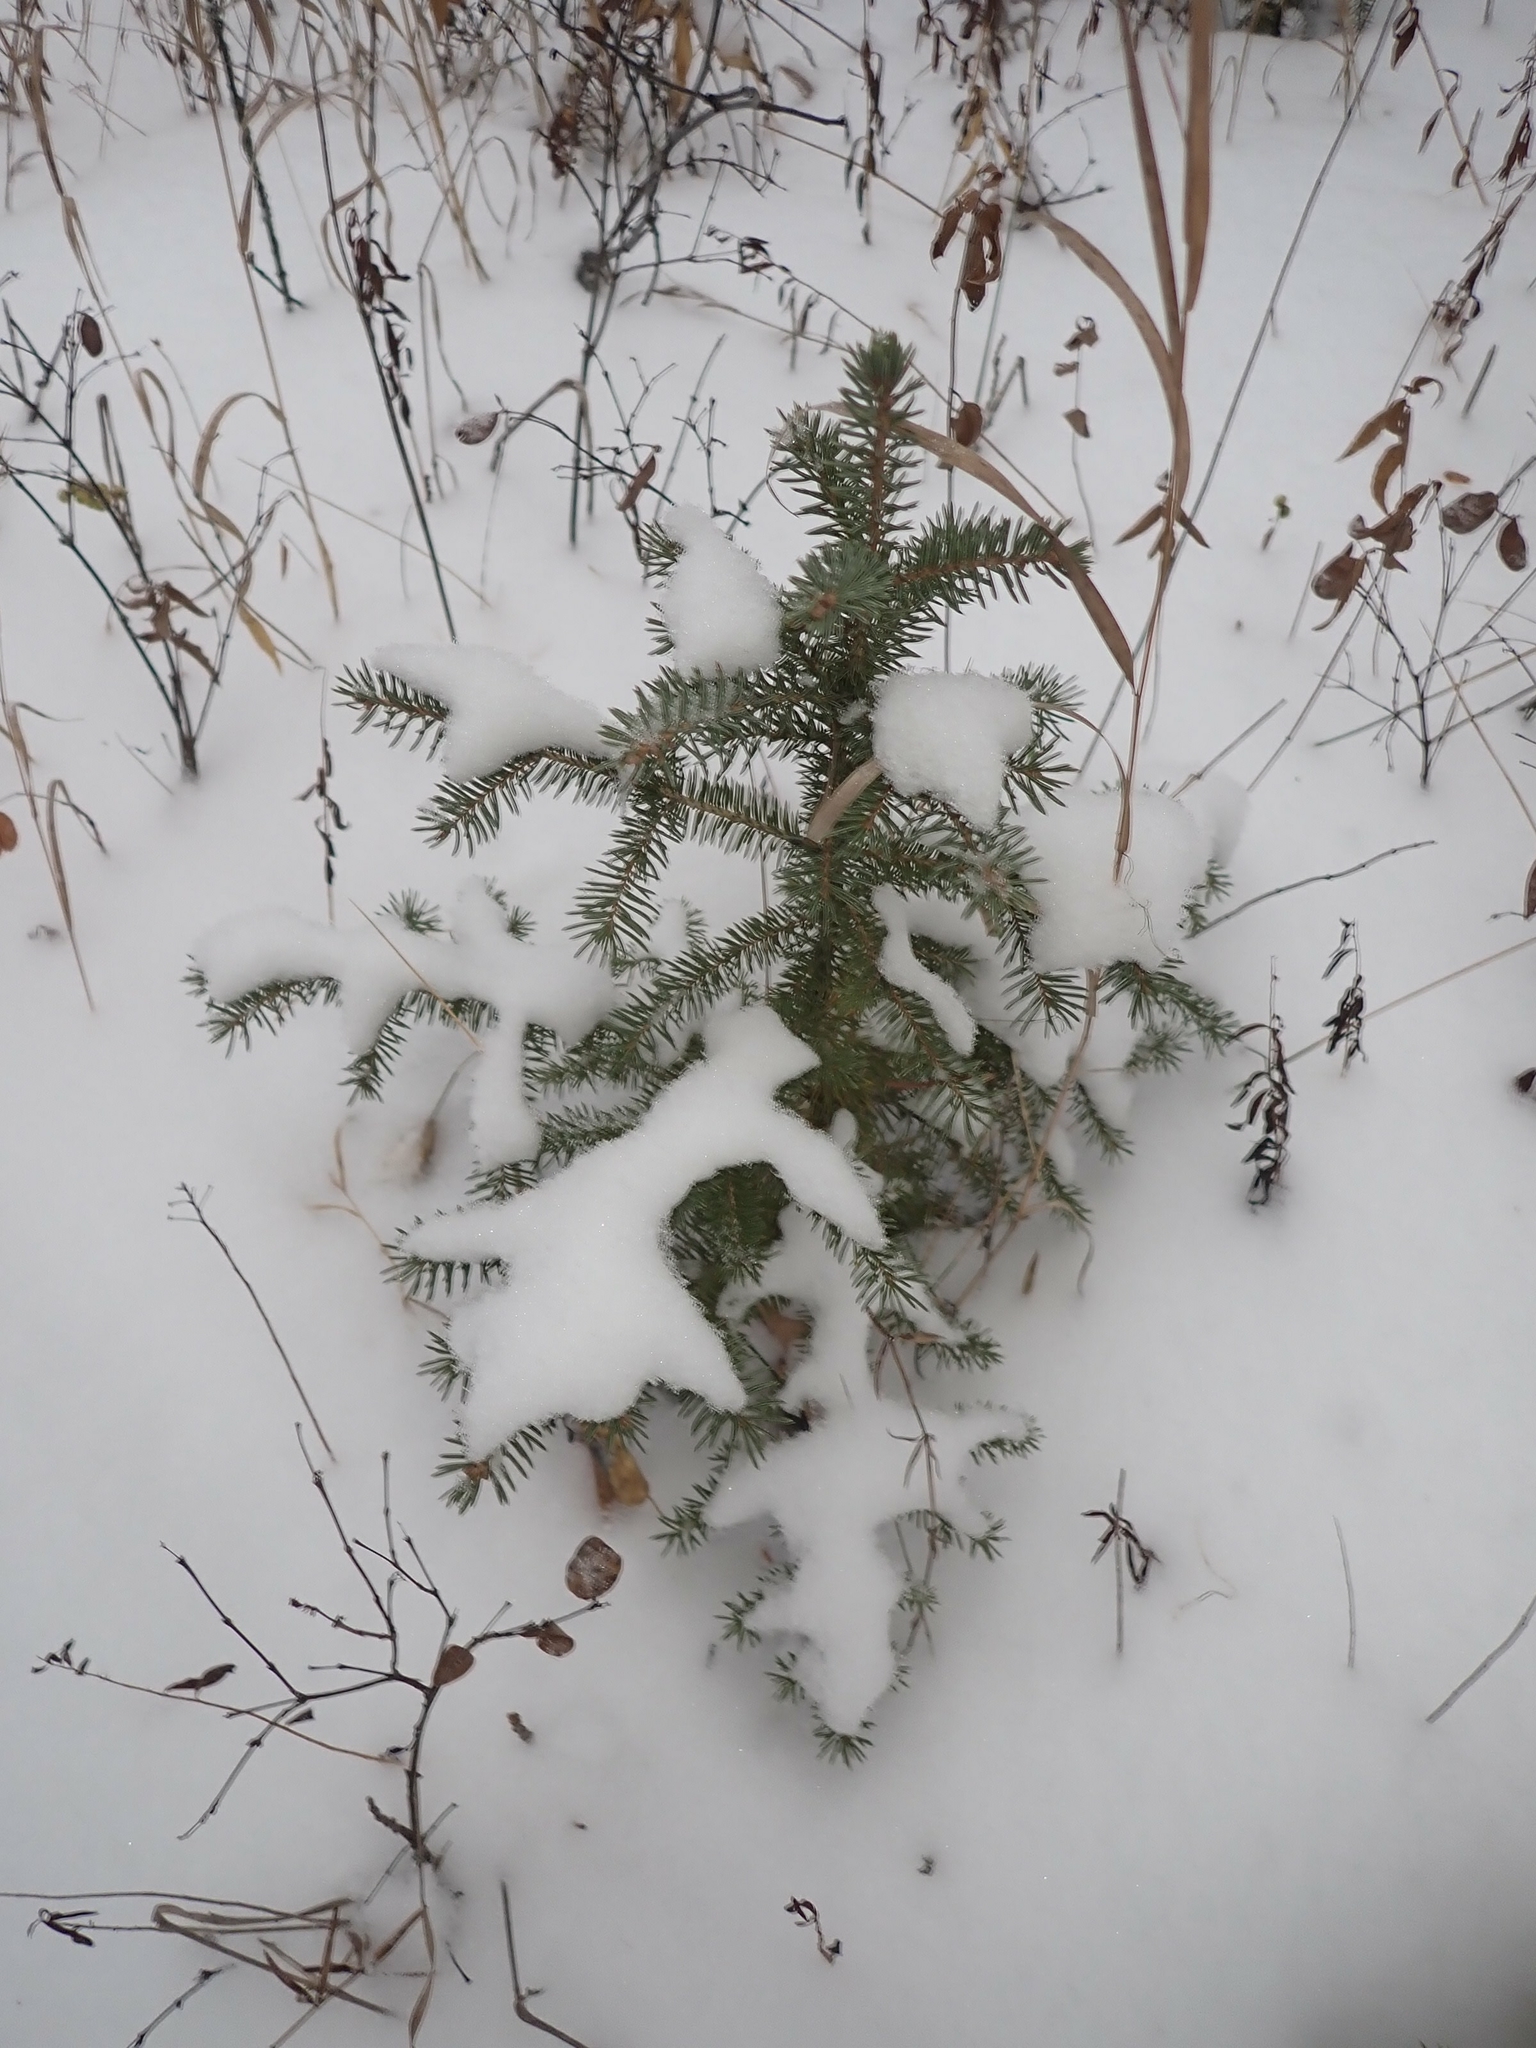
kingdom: Plantae
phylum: Tracheophyta
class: Pinopsida
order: Pinales
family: Pinaceae
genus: Picea
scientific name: Picea glauca
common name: White spruce
